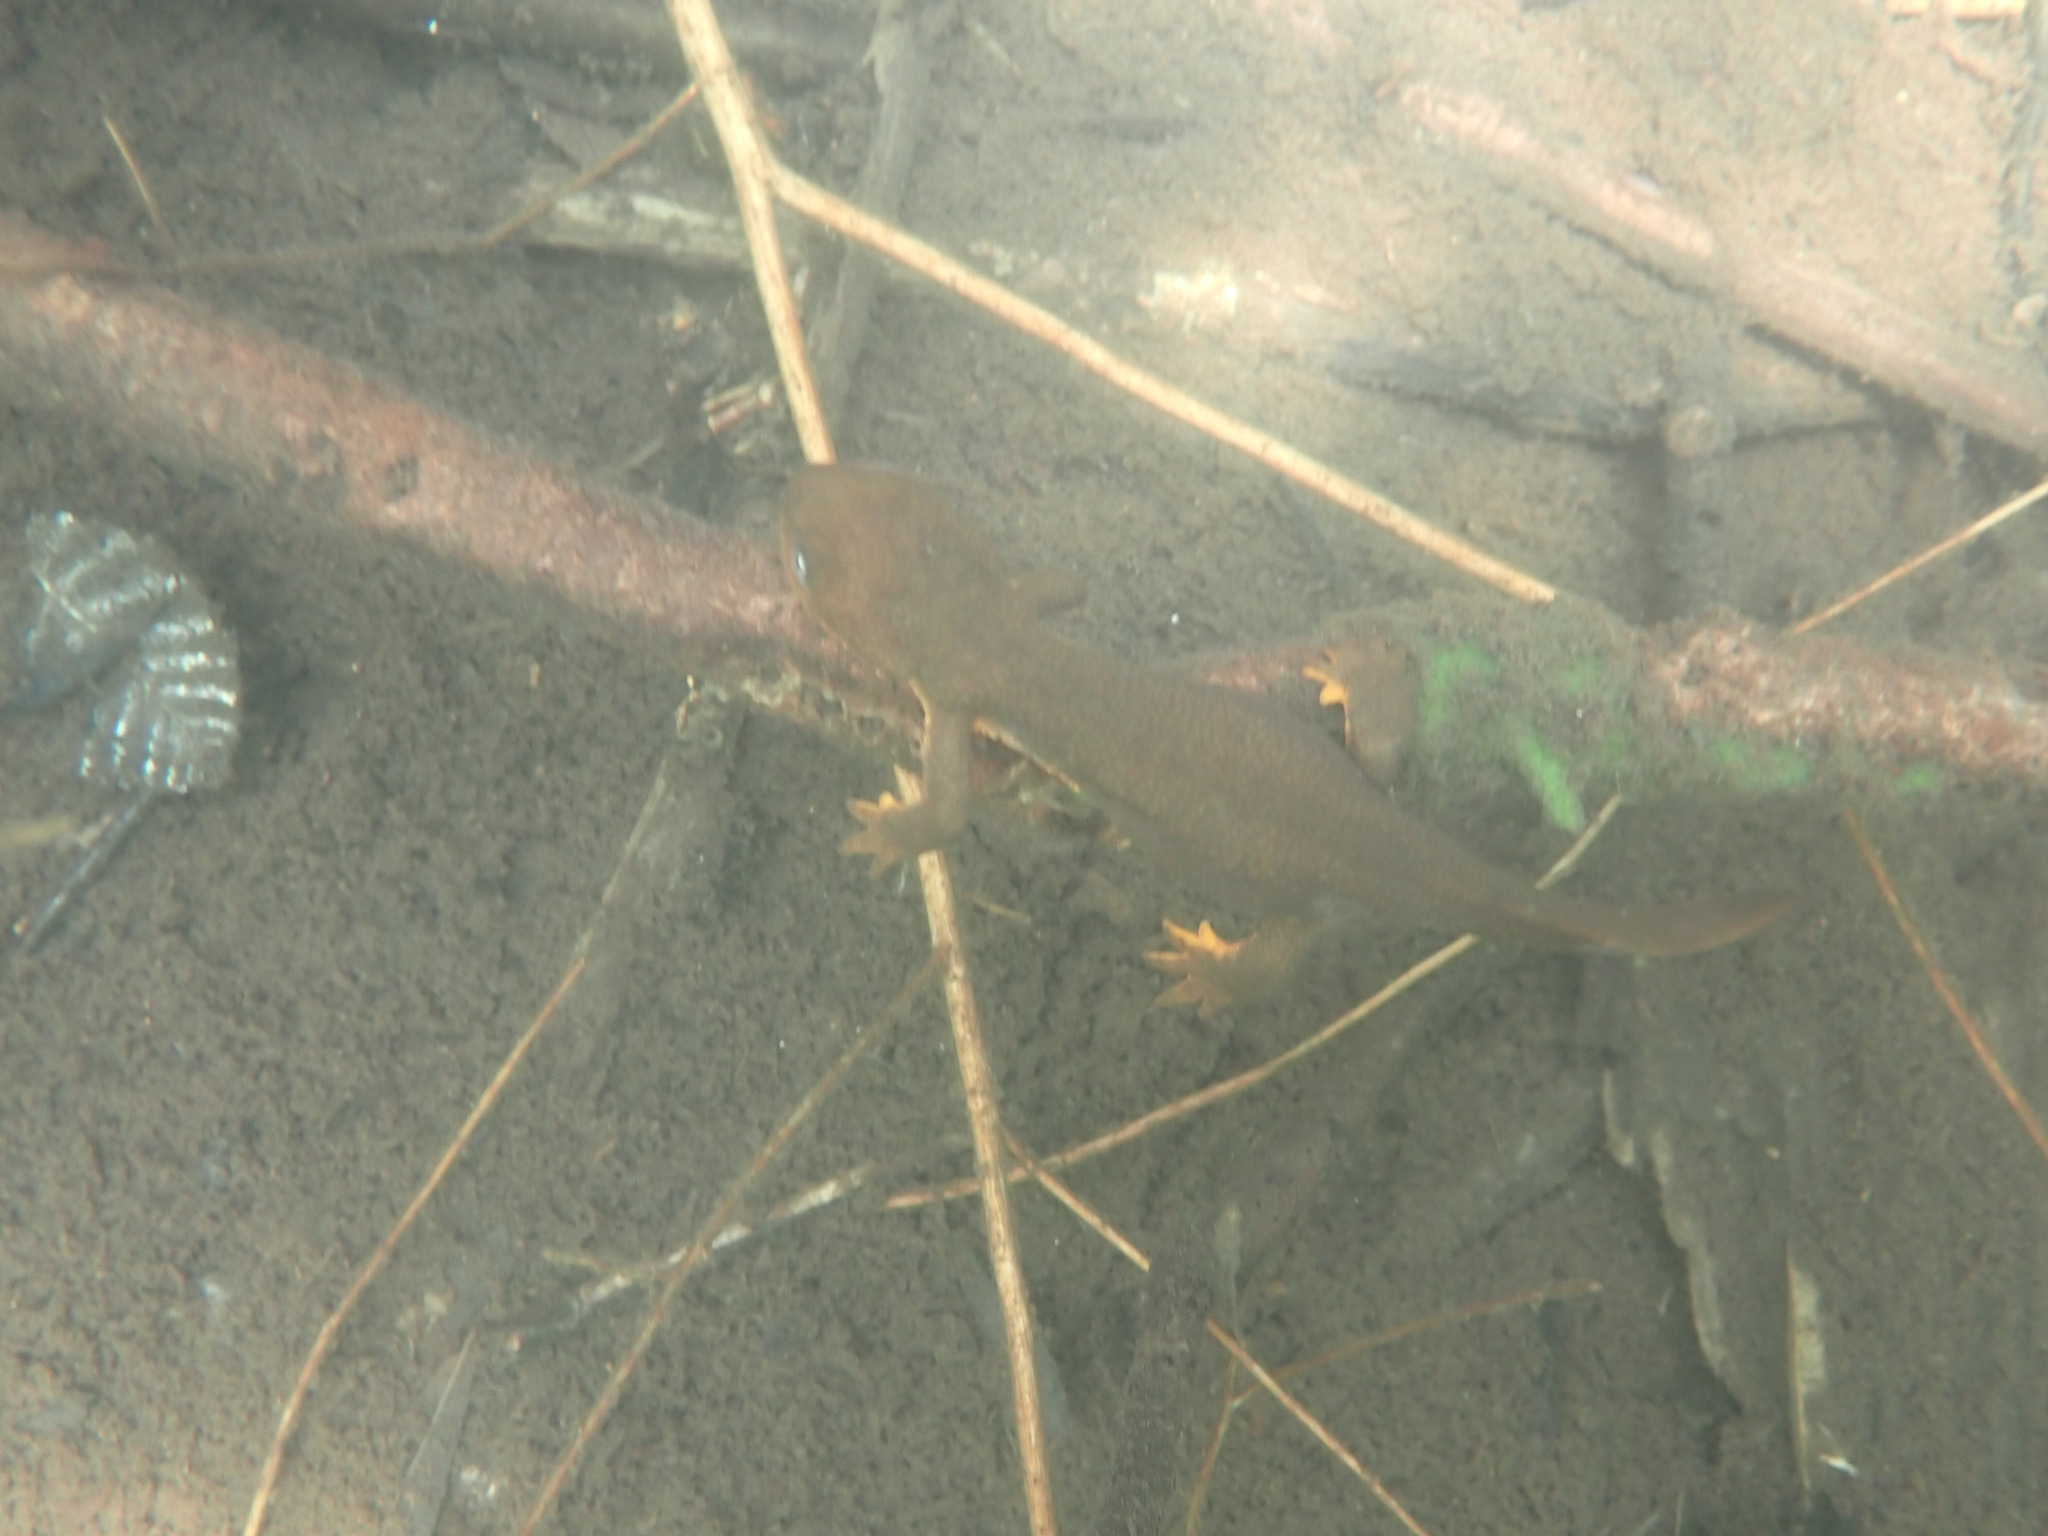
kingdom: Animalia
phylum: Chordata
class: Amphibia
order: Caudata
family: Salamandridae
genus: Taricha
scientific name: Taricha granulosa
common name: Roughskin newt
